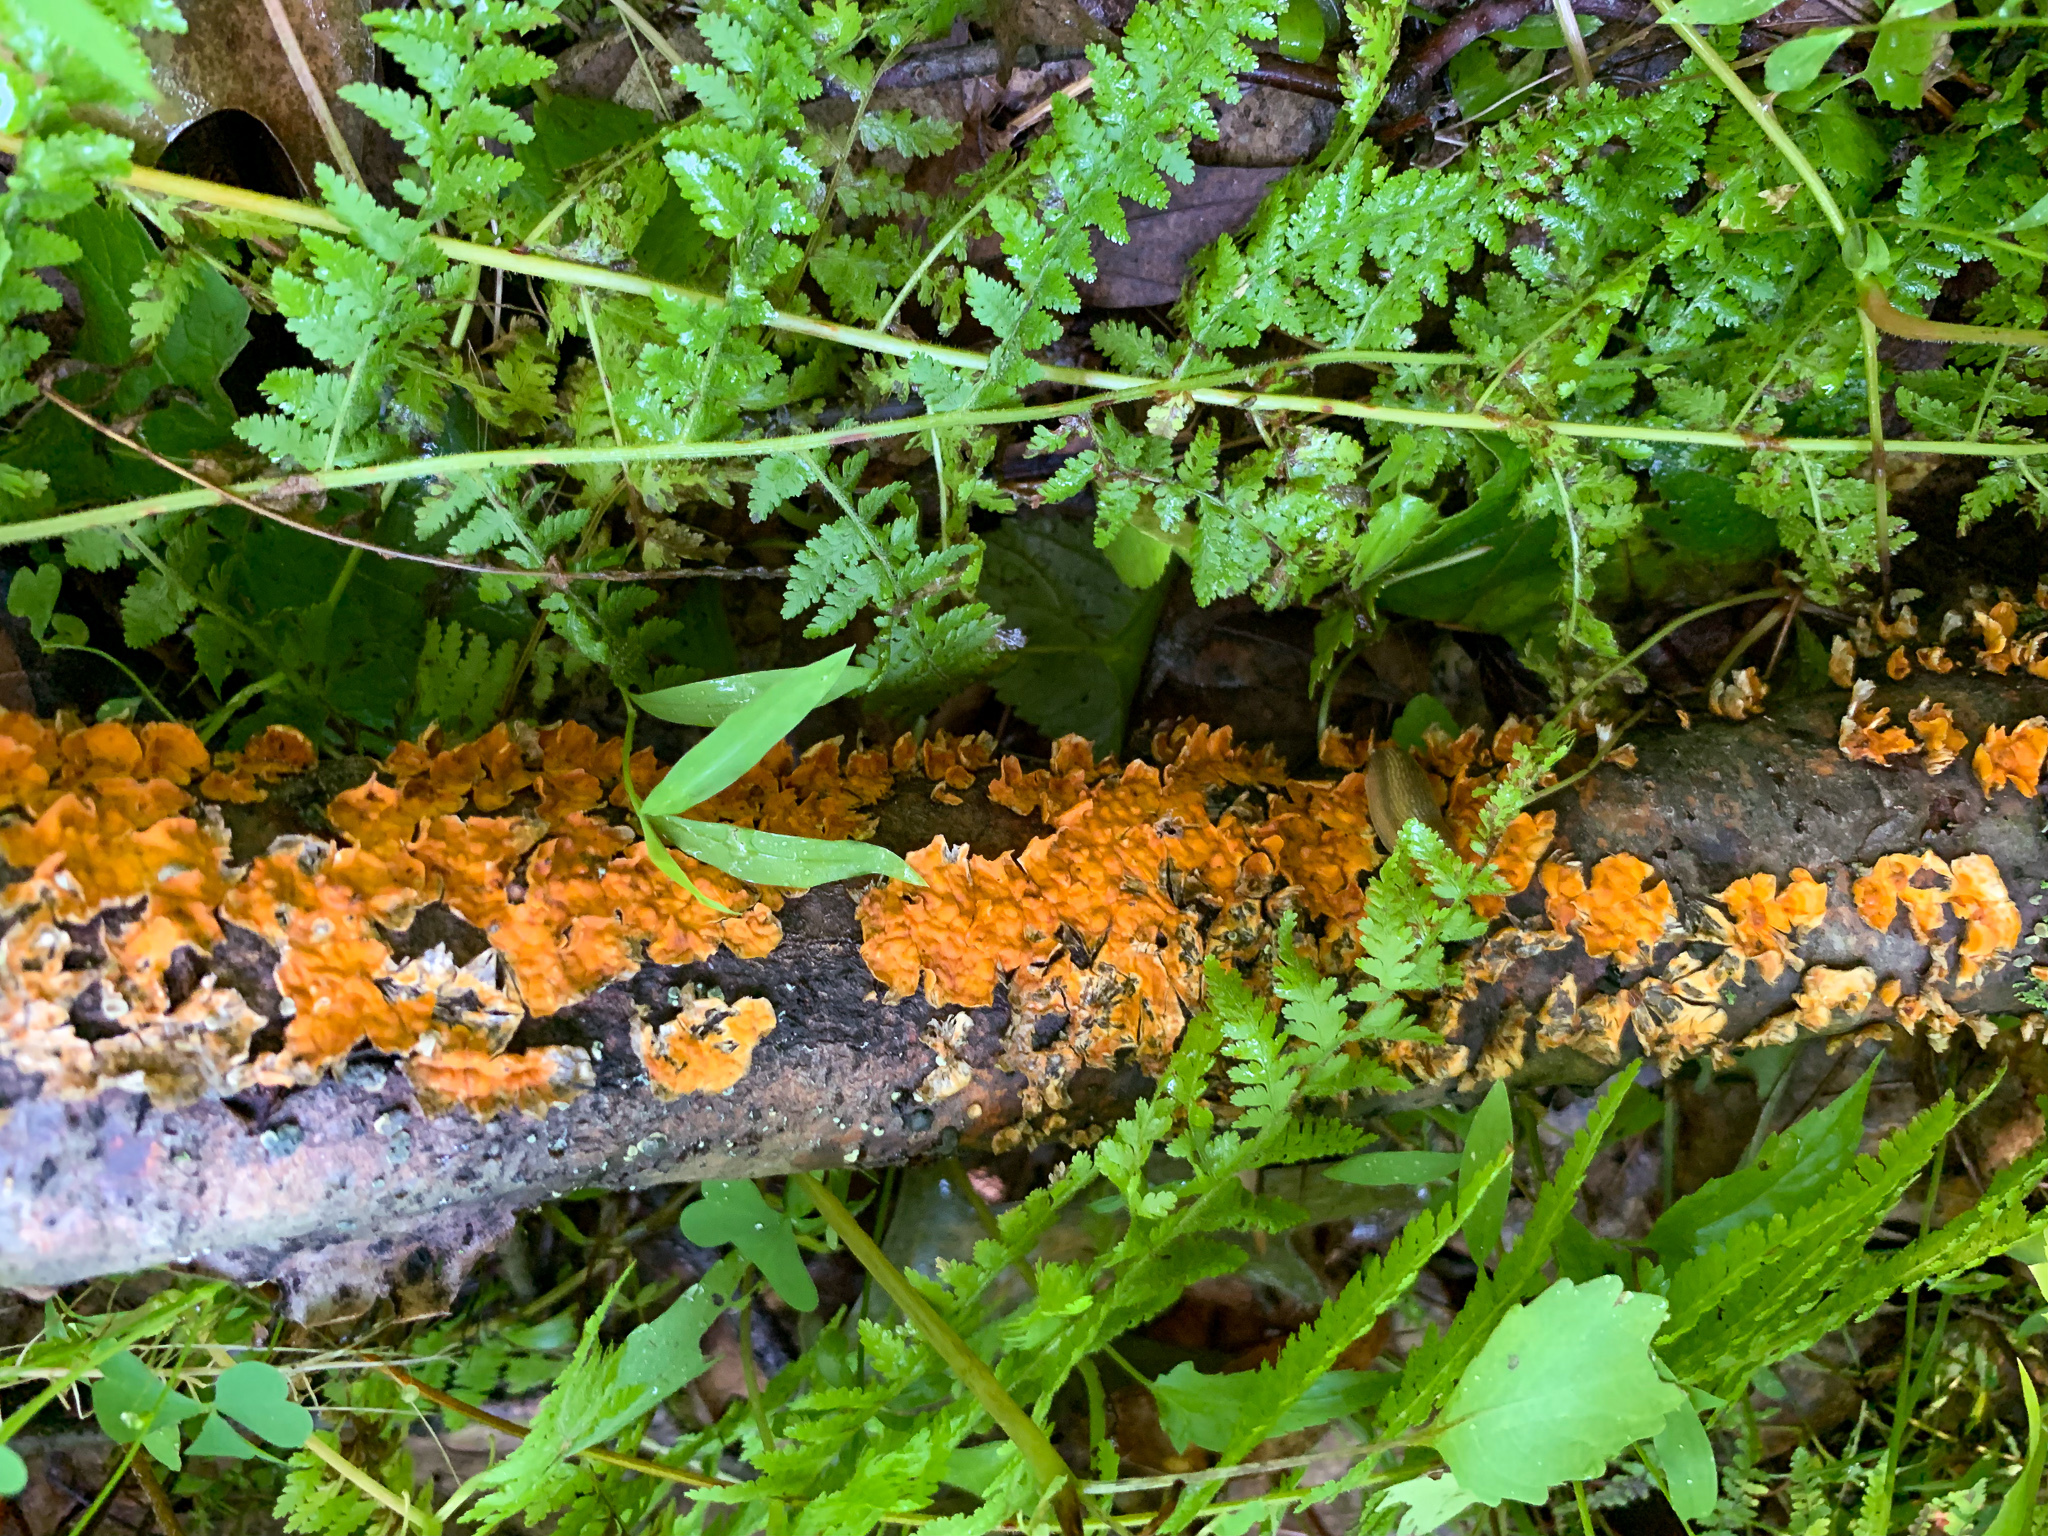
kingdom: Fungi
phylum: Basidiomycota
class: Agaricomycetes
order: Russulales
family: Stereaceae
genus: Stereum
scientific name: Stereum complicatum
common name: Crowded parchment
